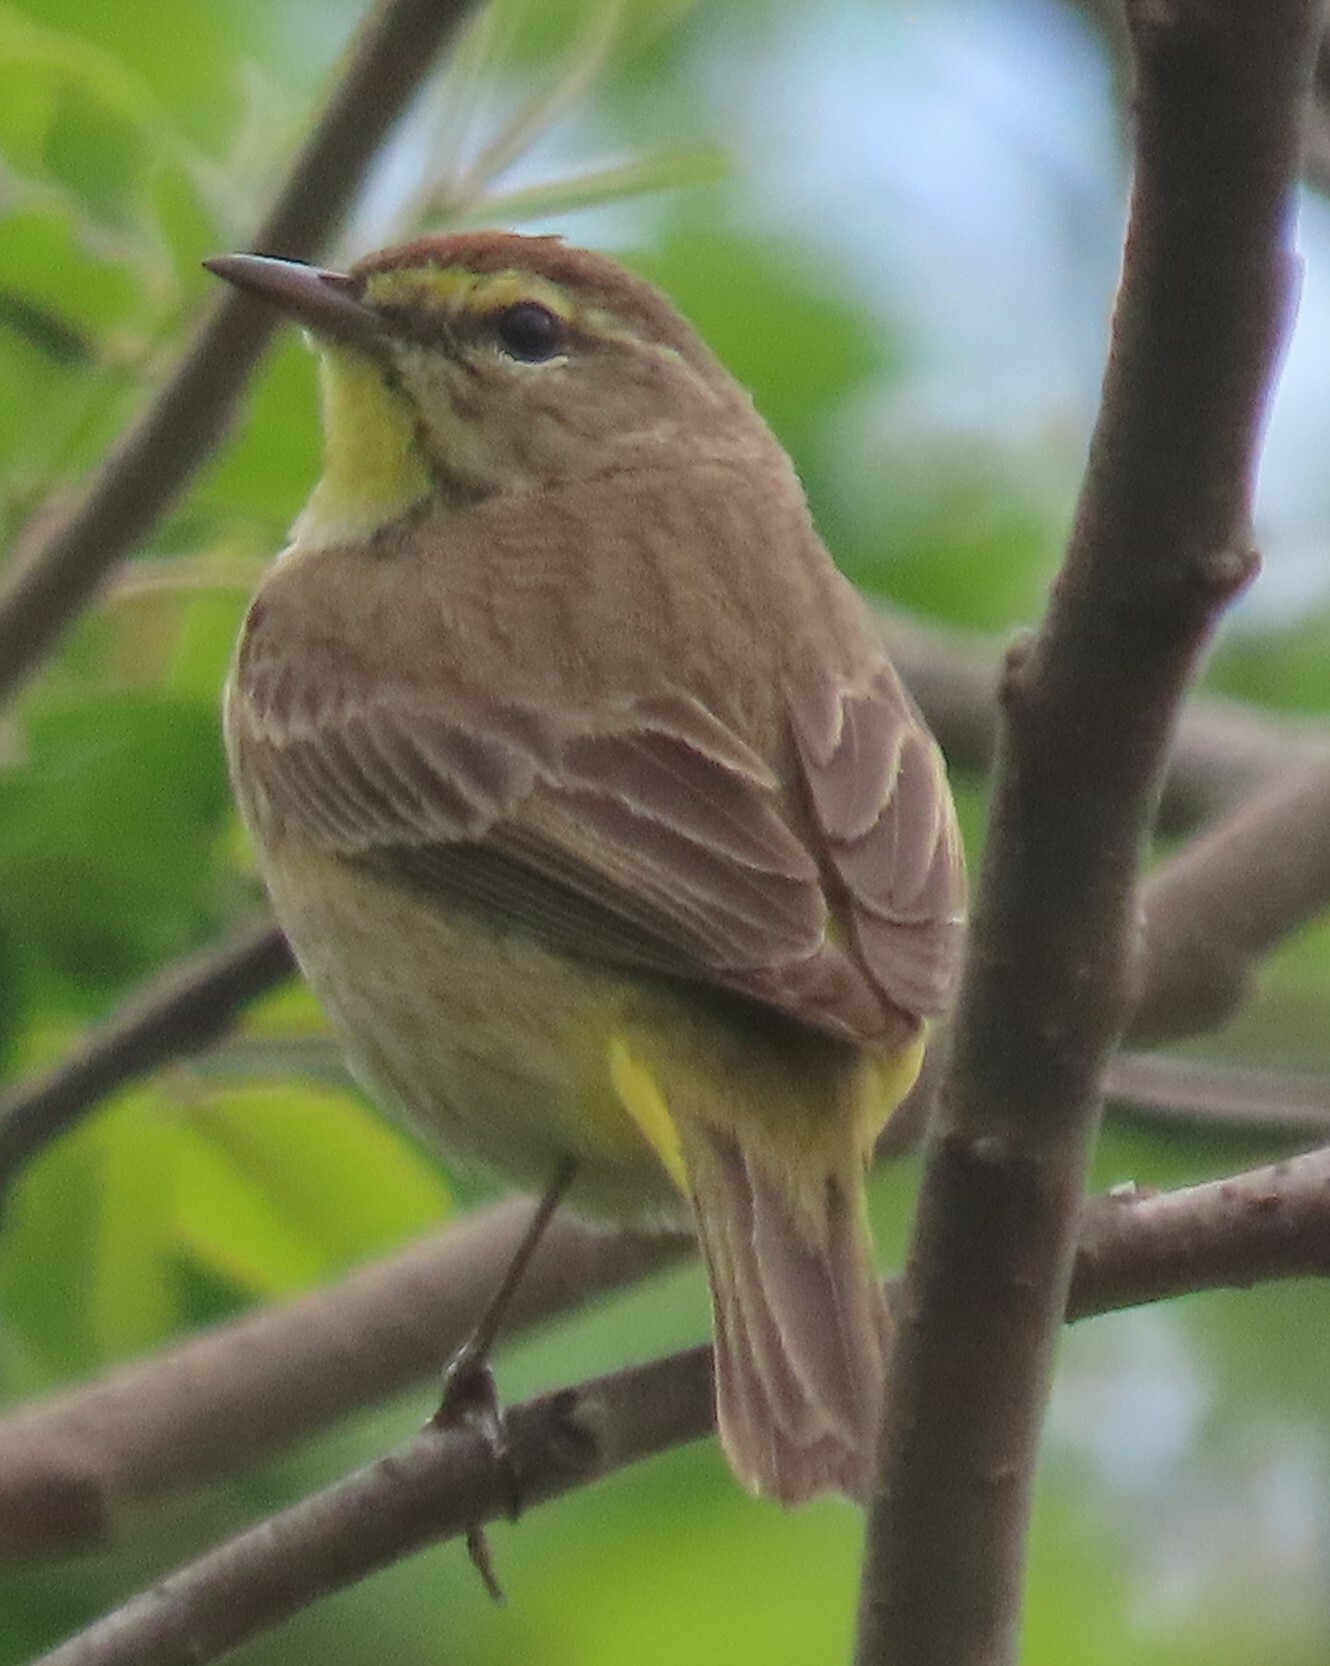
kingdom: Animalia
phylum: Chordata
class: Aves
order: Passeriformes
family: Parulidae
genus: Setophaga
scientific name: Setophaga palmarum
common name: Palm warbler
